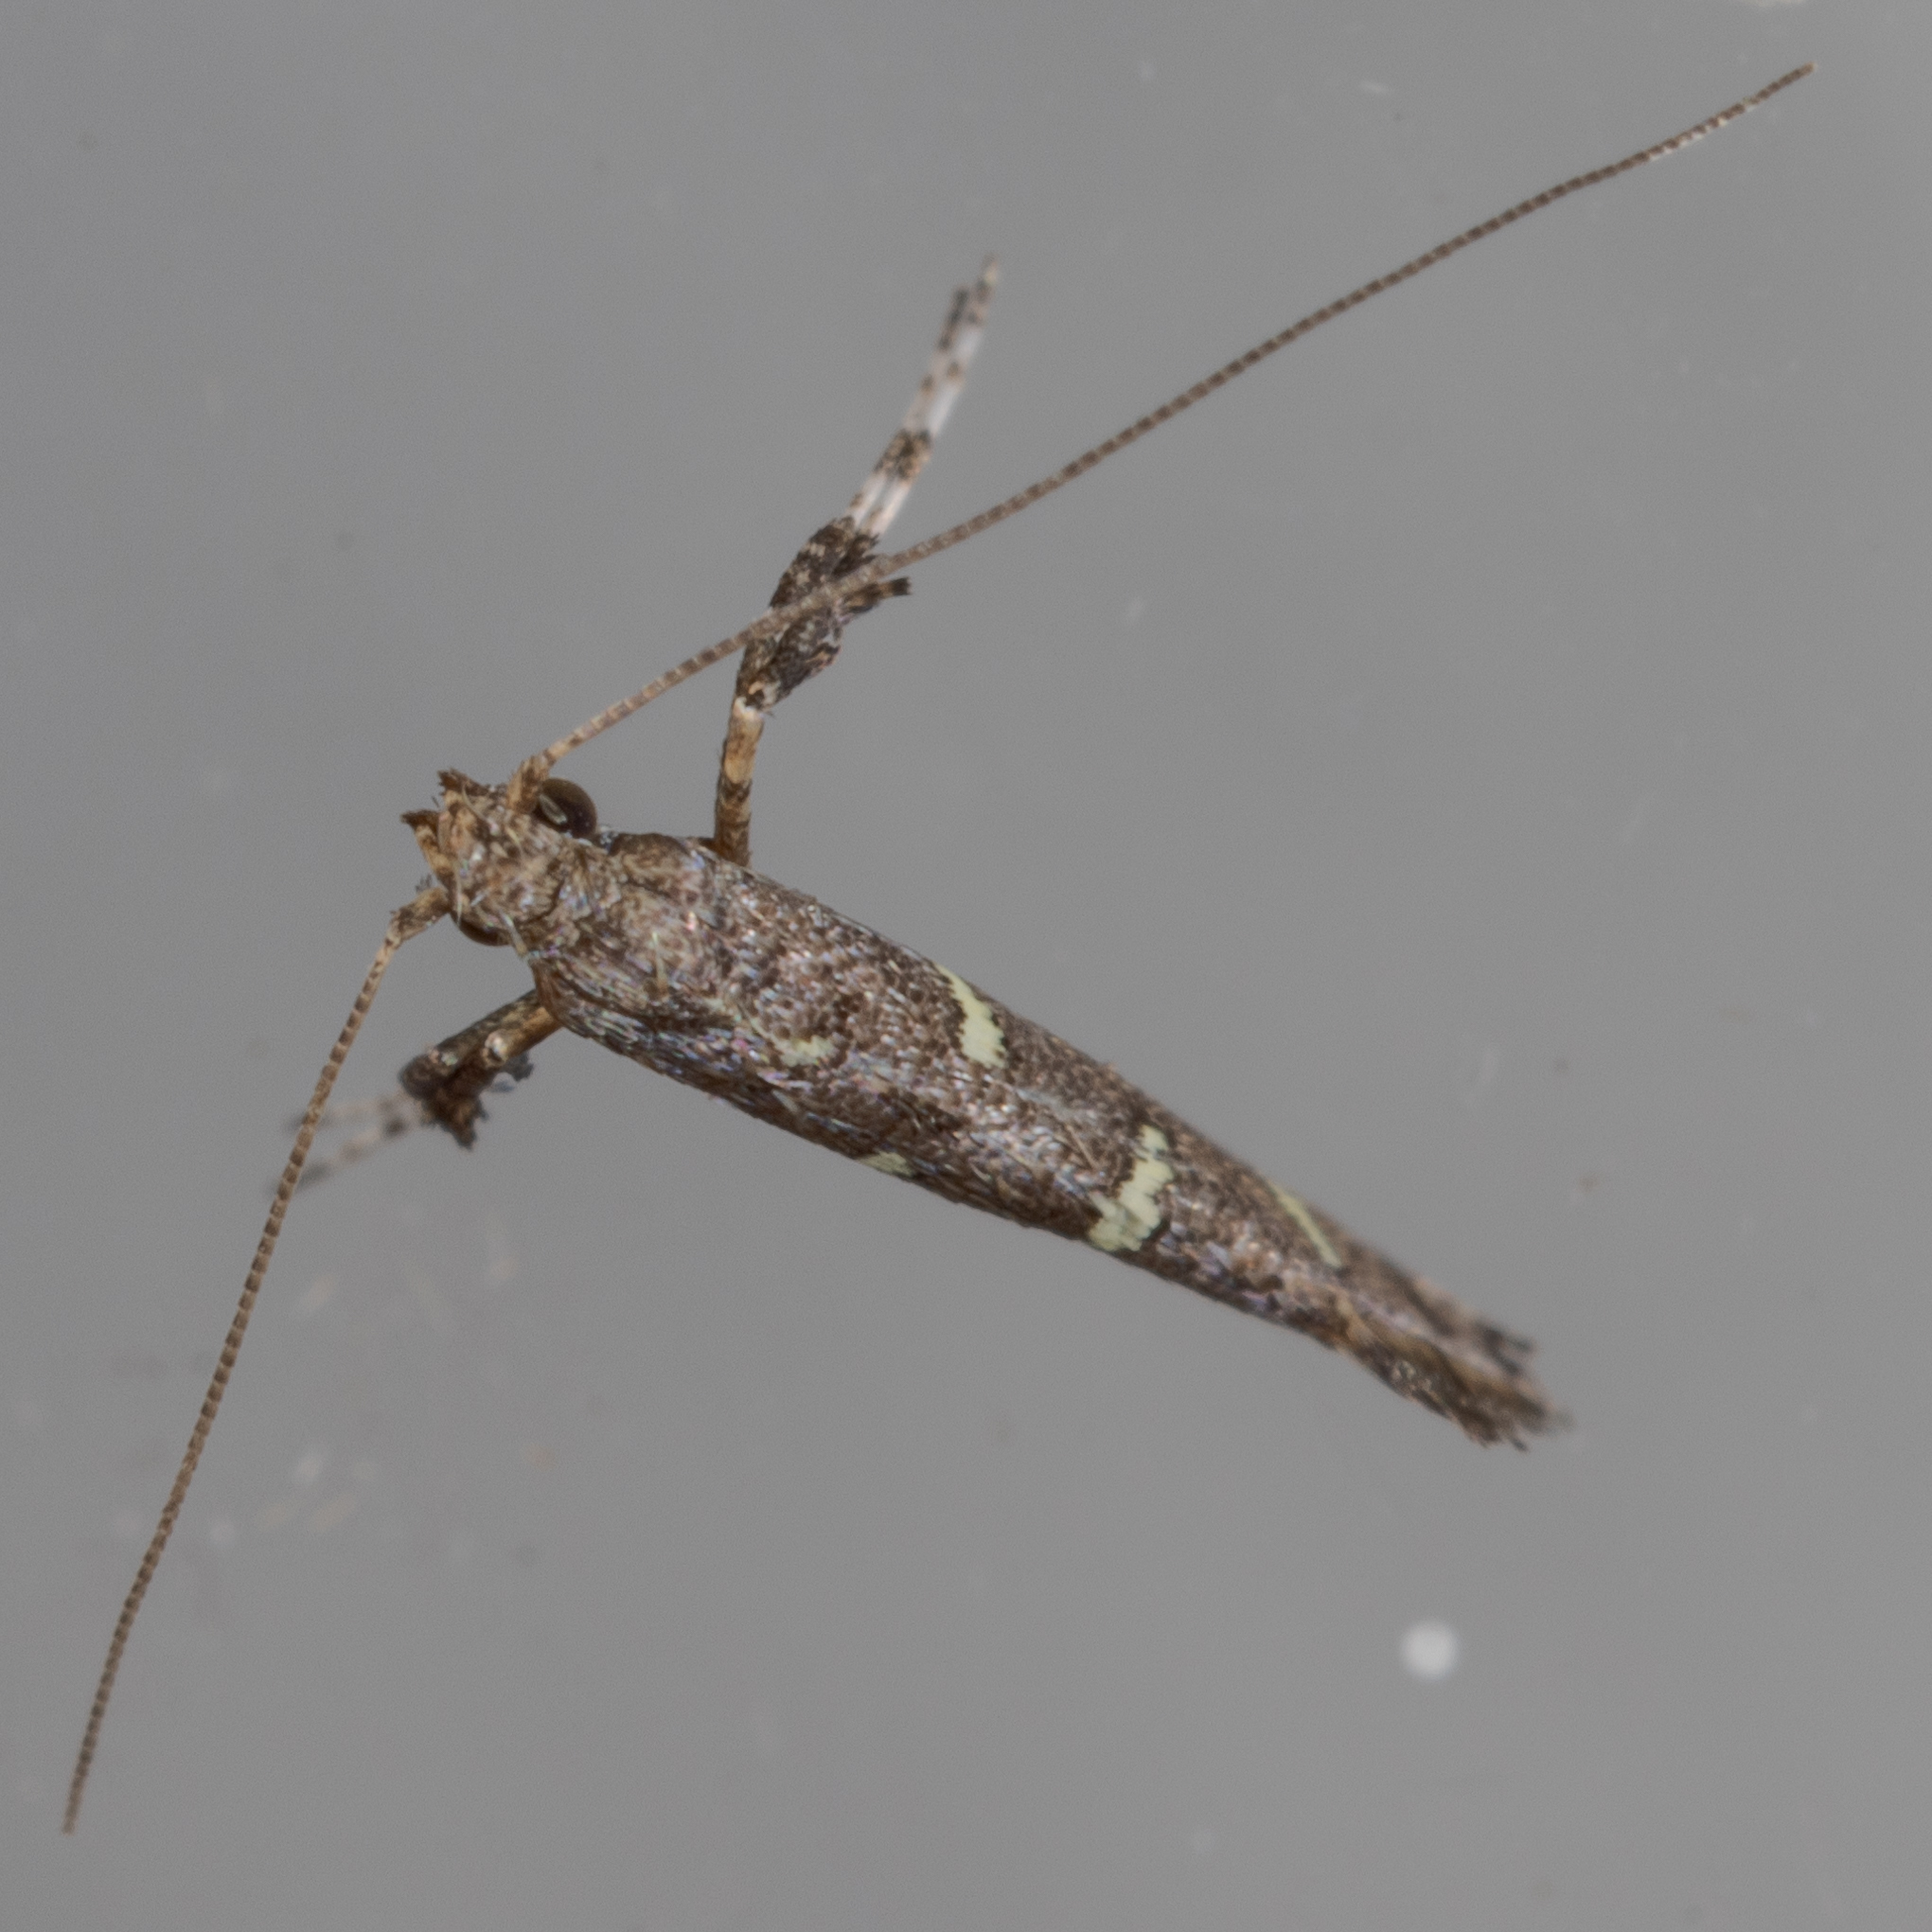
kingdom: Animalia
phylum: Arthropoda
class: Insecta
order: Lepidoptera
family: Gracillariidae
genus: Caloptilia
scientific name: Caloptilia triadicae
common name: Tallow leaf roller
